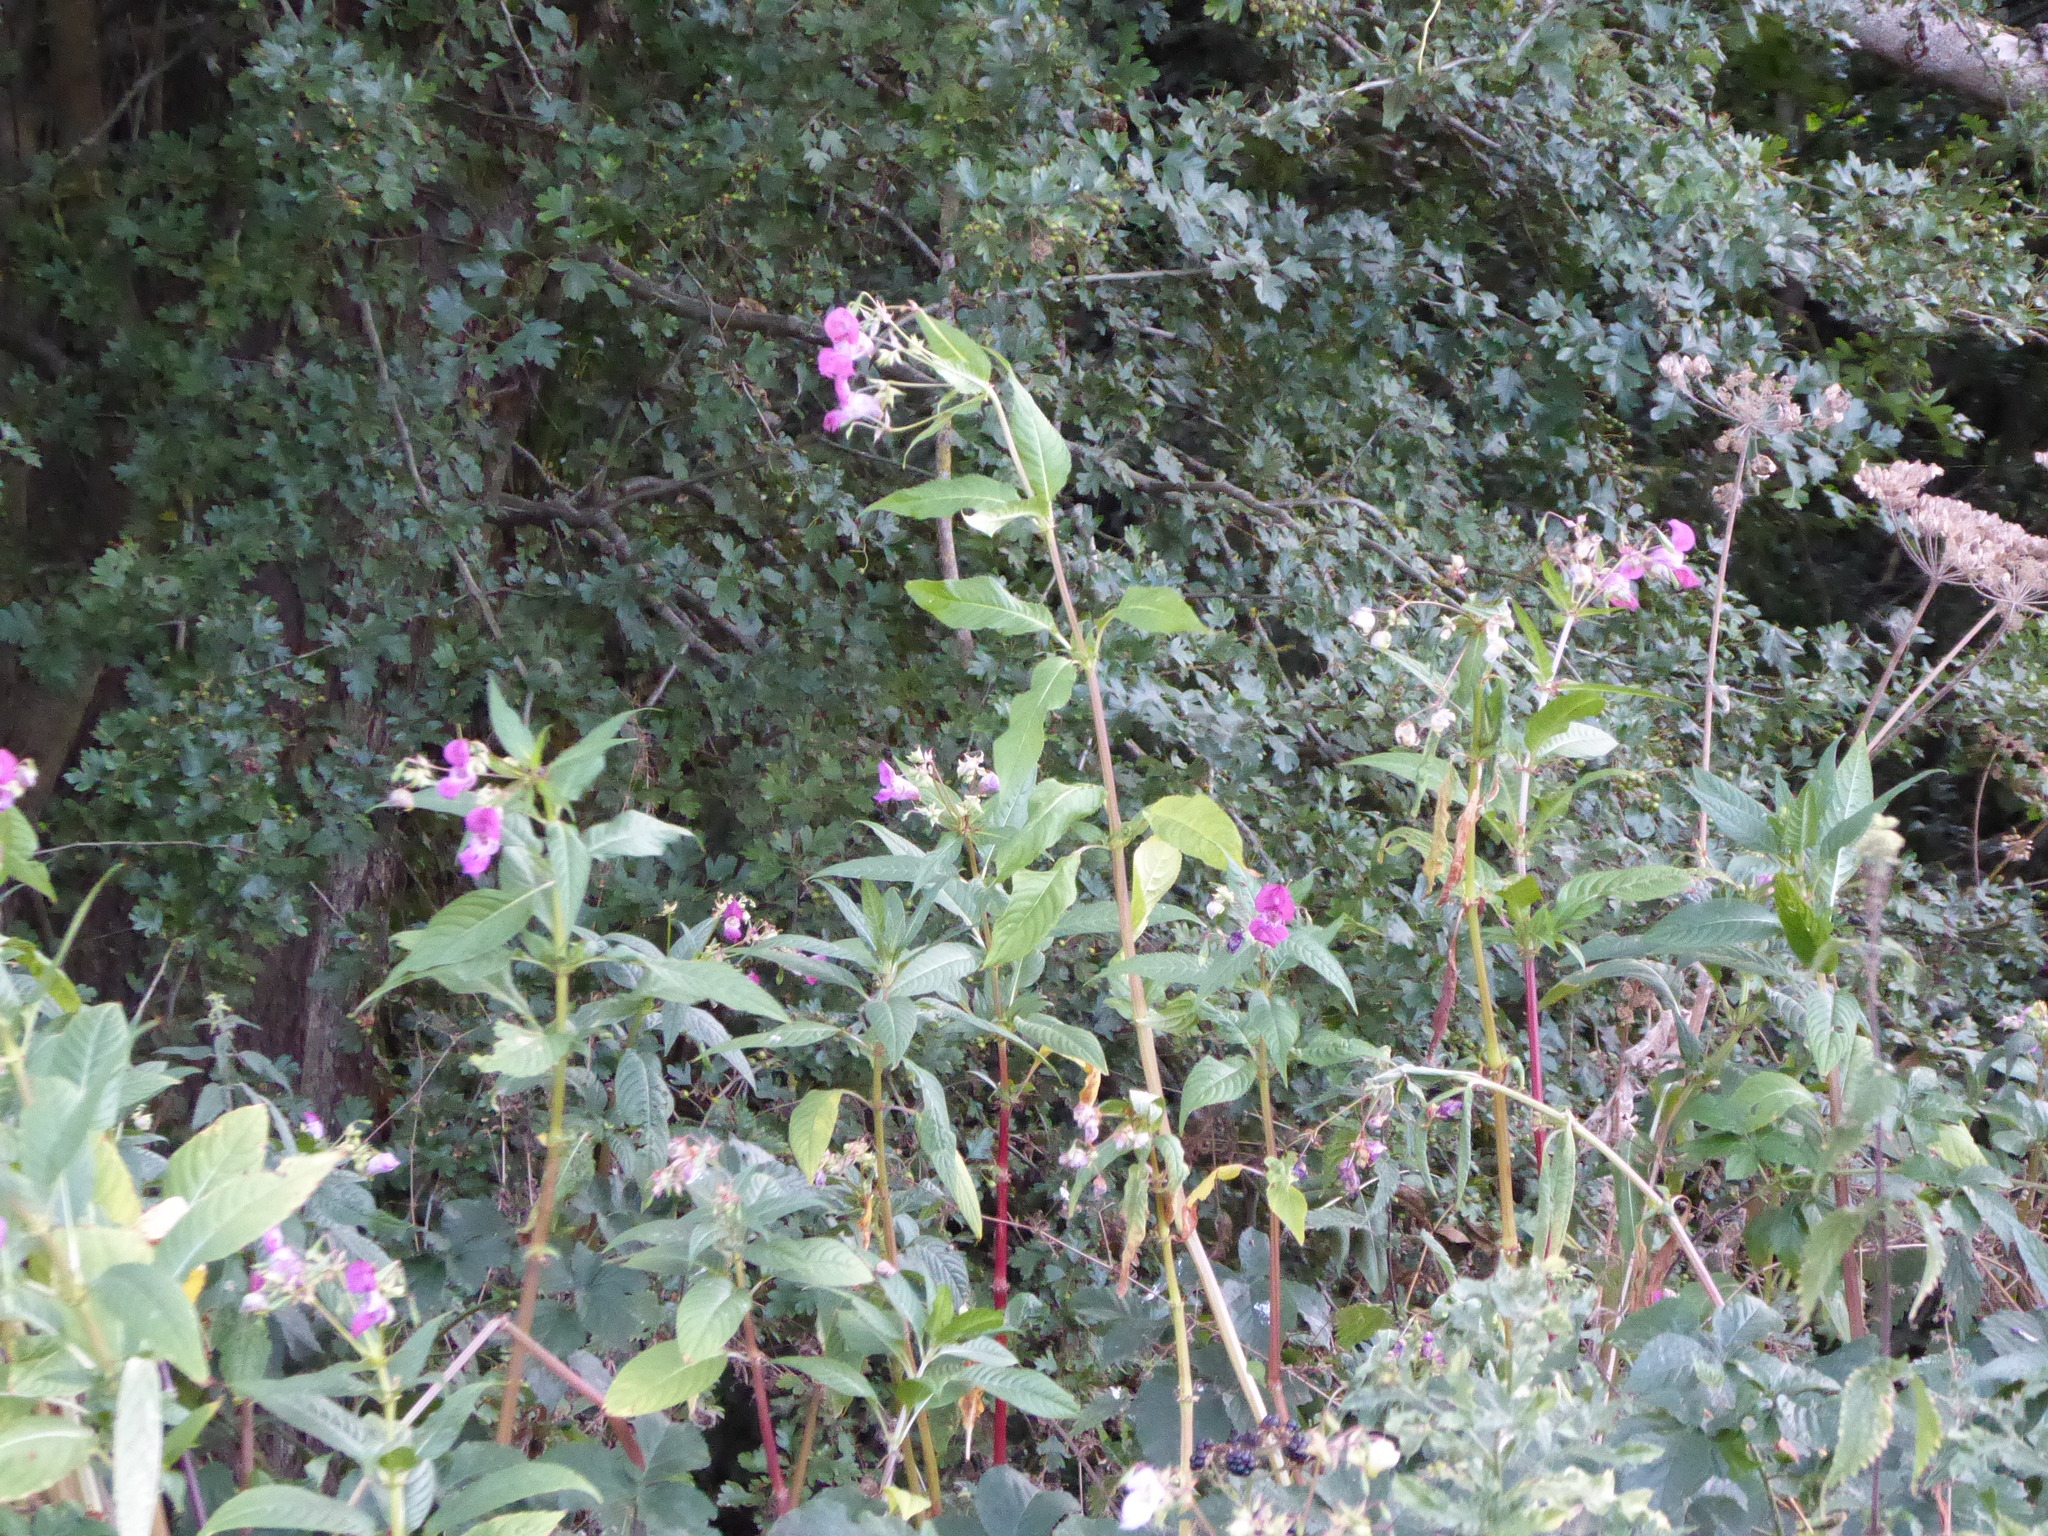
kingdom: Plantae
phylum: Tracheophyta
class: Magnoliopsida
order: Ericales
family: Balsaminaceae
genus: Impatiens
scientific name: Impatiens glandulifera
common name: Himalayan balsam
